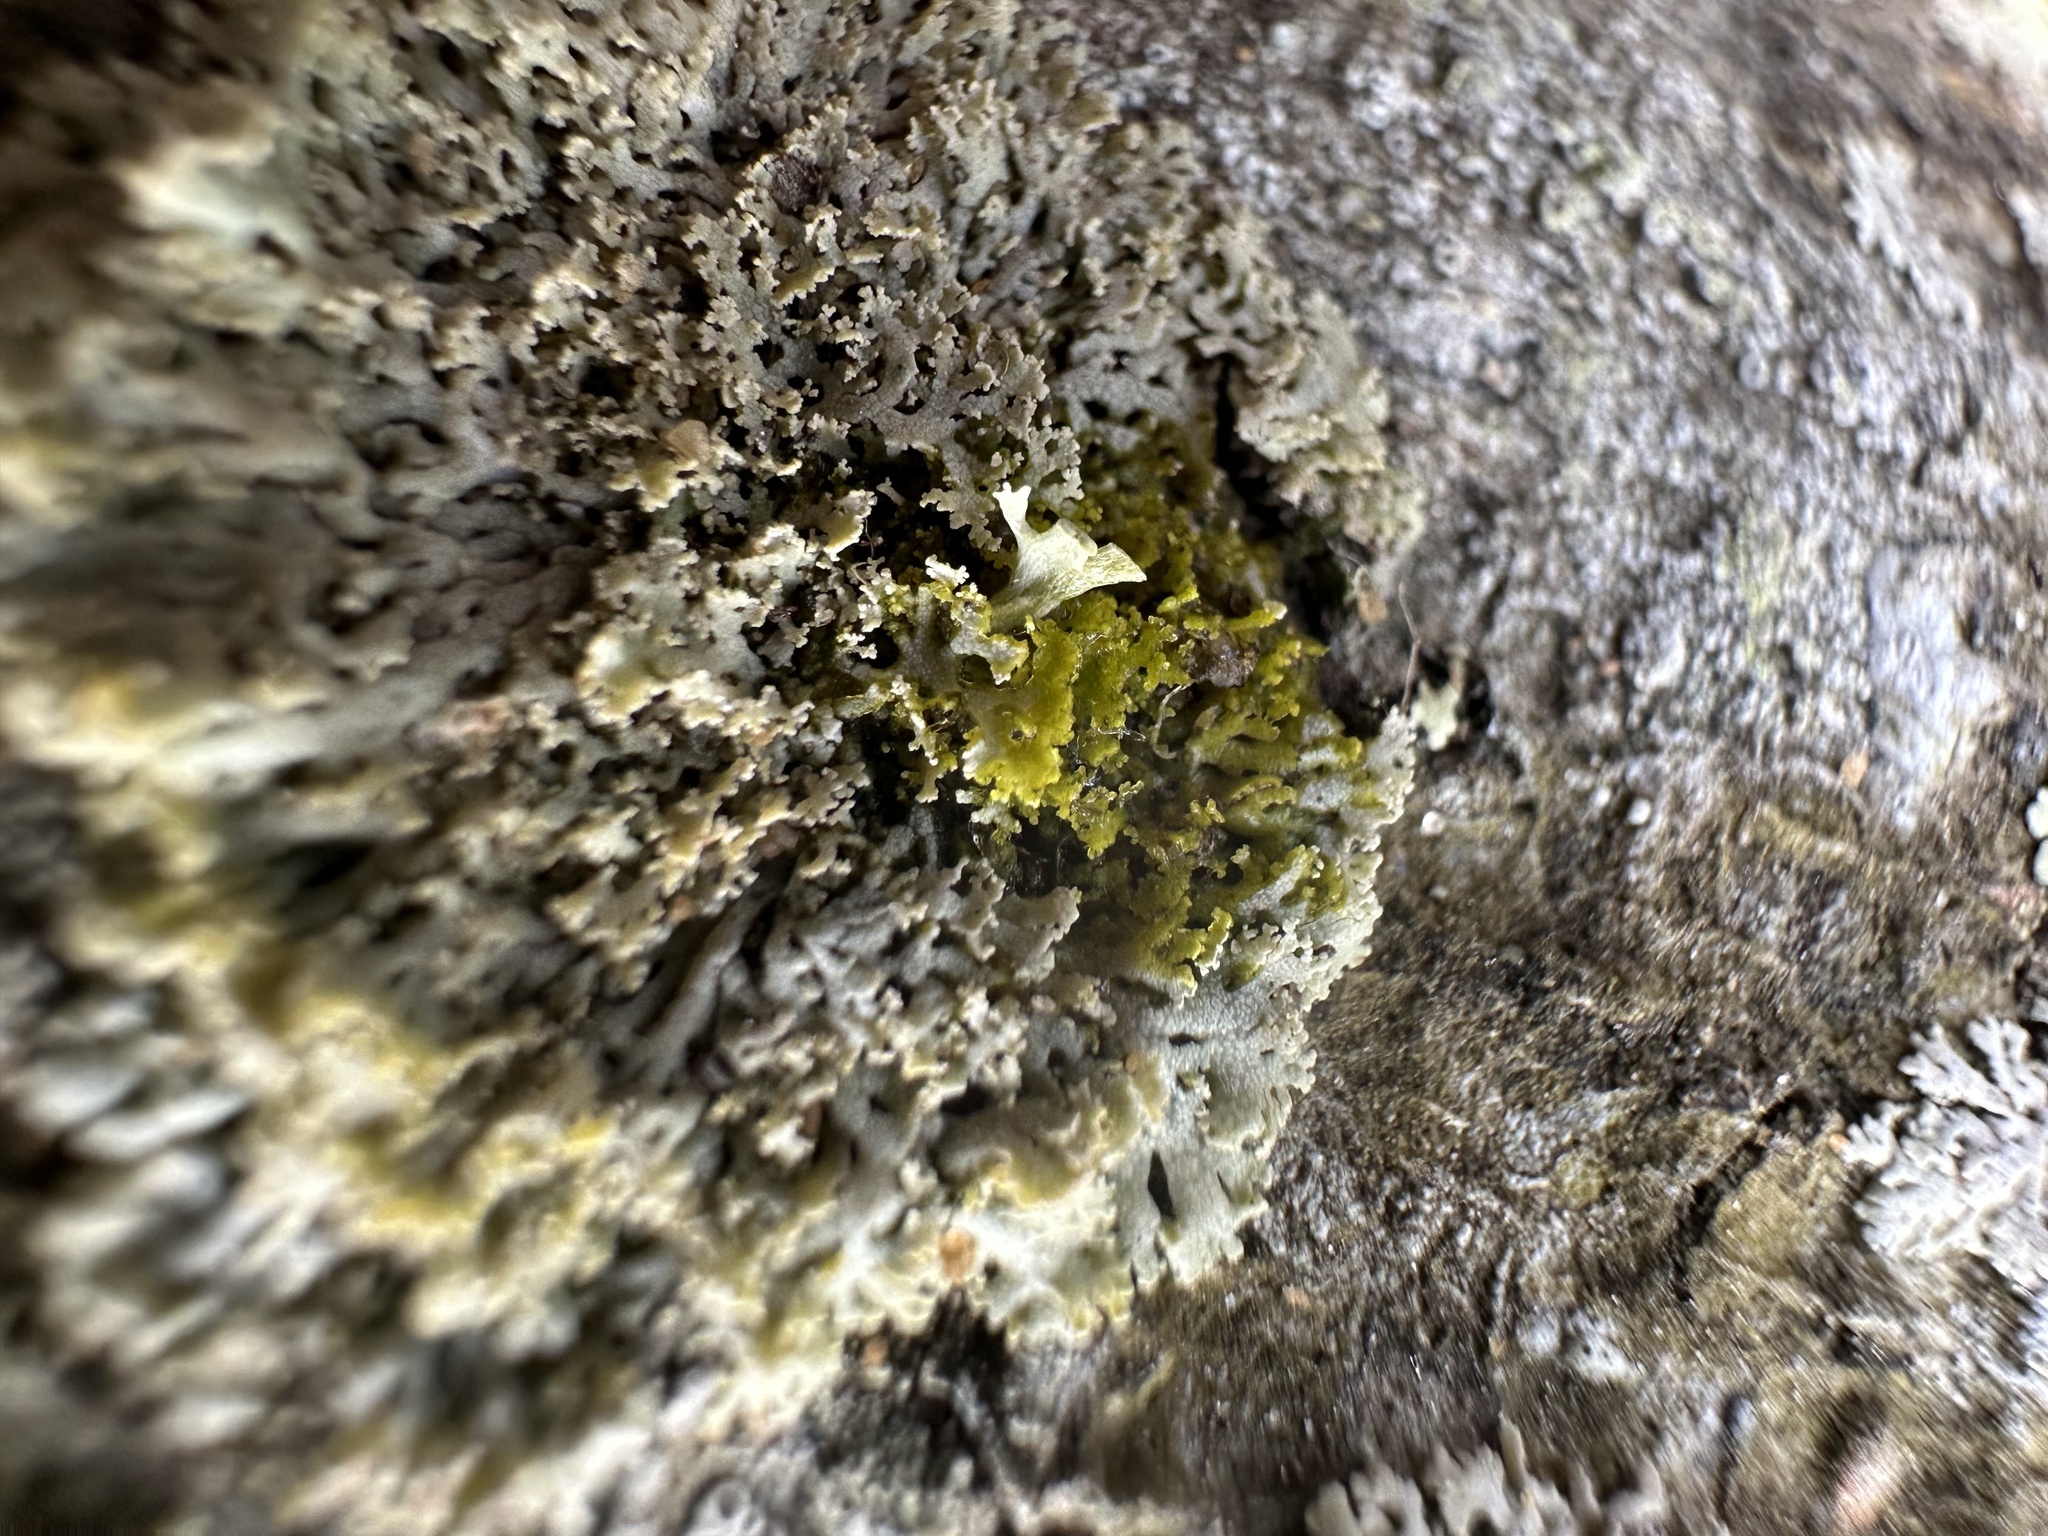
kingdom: Fungi
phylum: Ascomycota
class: Lecanoromycetes
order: Caliciales
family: Physciaceae
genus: Physcia
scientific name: Physcia millegrana
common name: Rosette lichen
